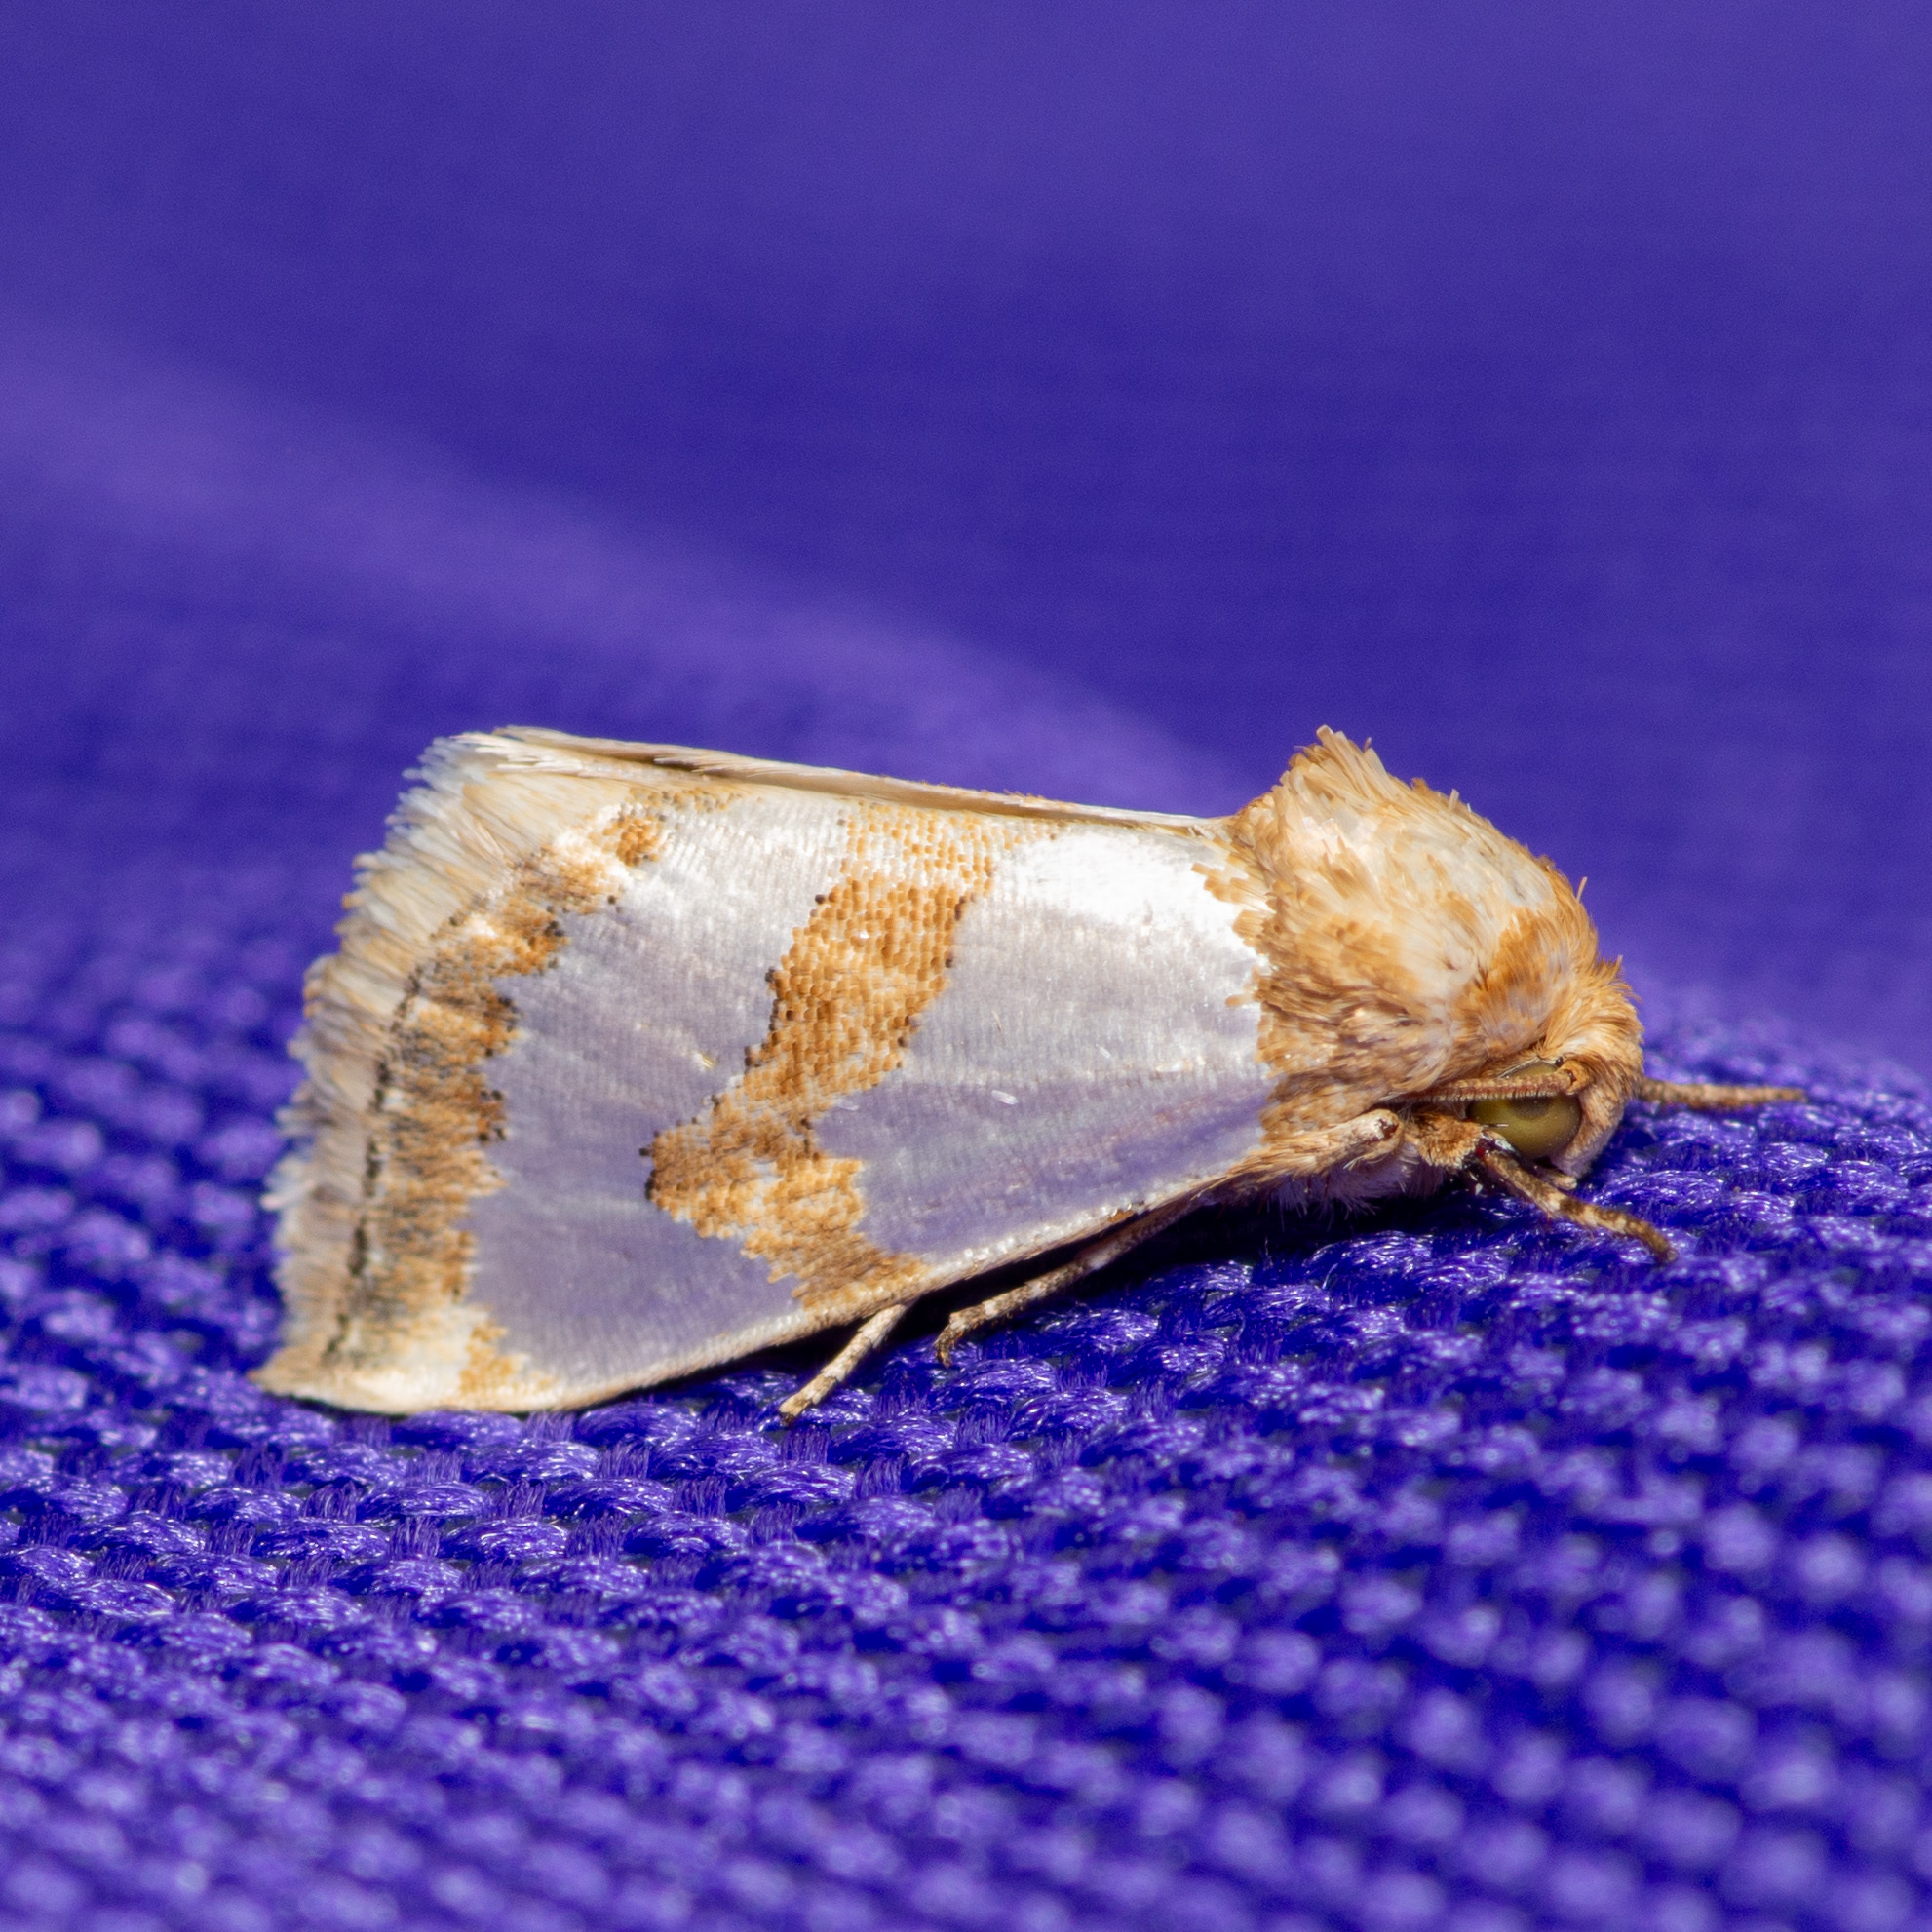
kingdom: Animalia
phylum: Arthropoda
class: Insecta
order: Lepidoptera
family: Noctuidae
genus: Schinia
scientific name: Schinia chrysellus
